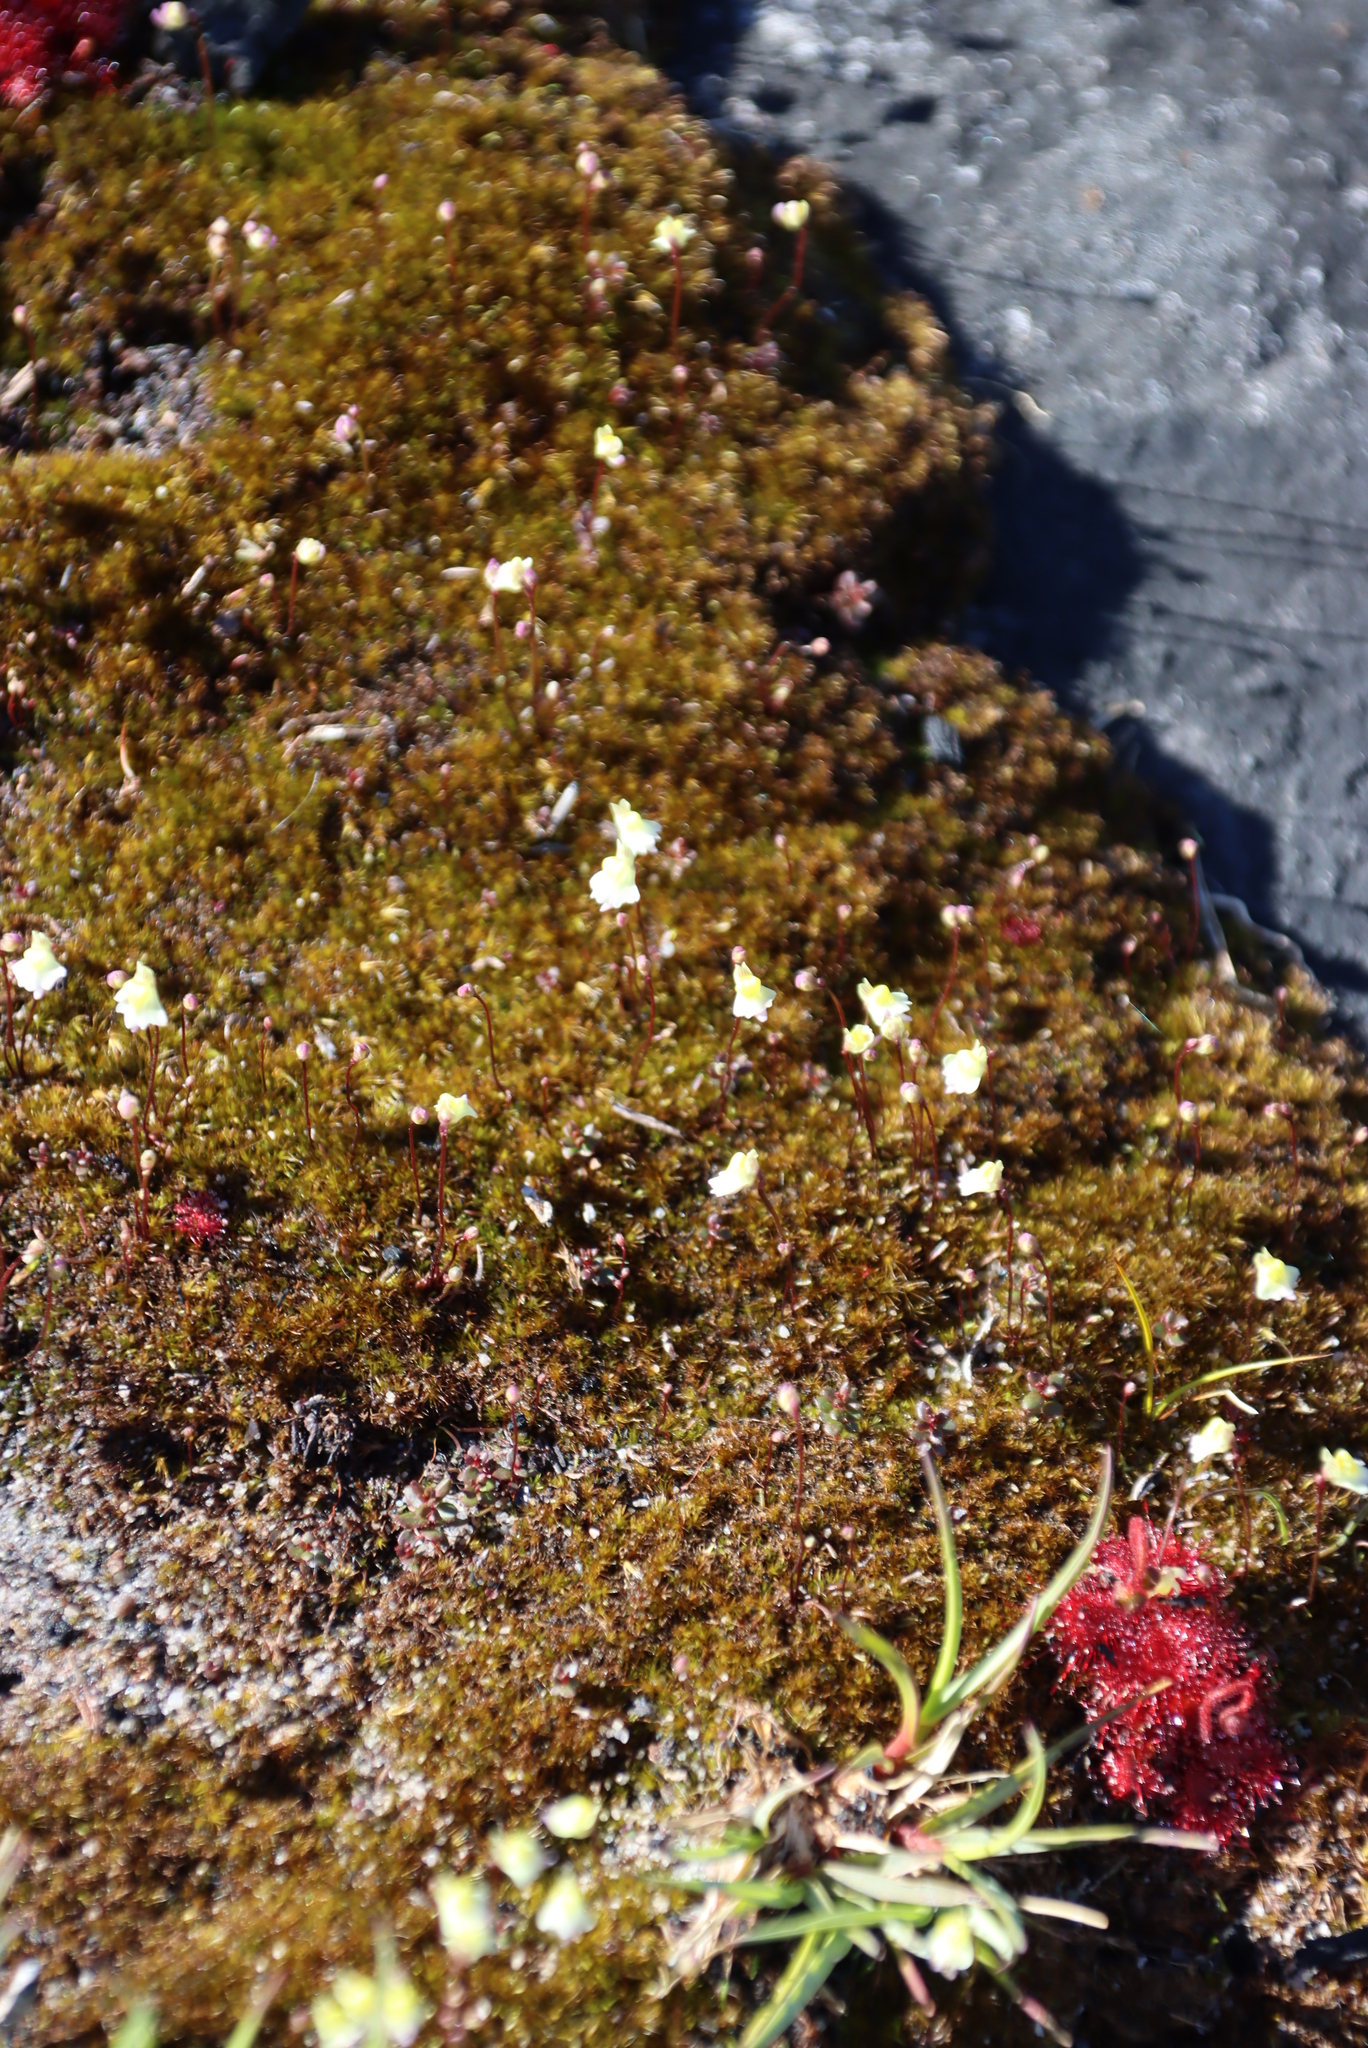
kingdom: Plantae
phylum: Tracheophyta
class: Magnoliopsida
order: Lamiales
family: Lentibulariaceae
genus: Utricularia
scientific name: Utricularia bisquamata
